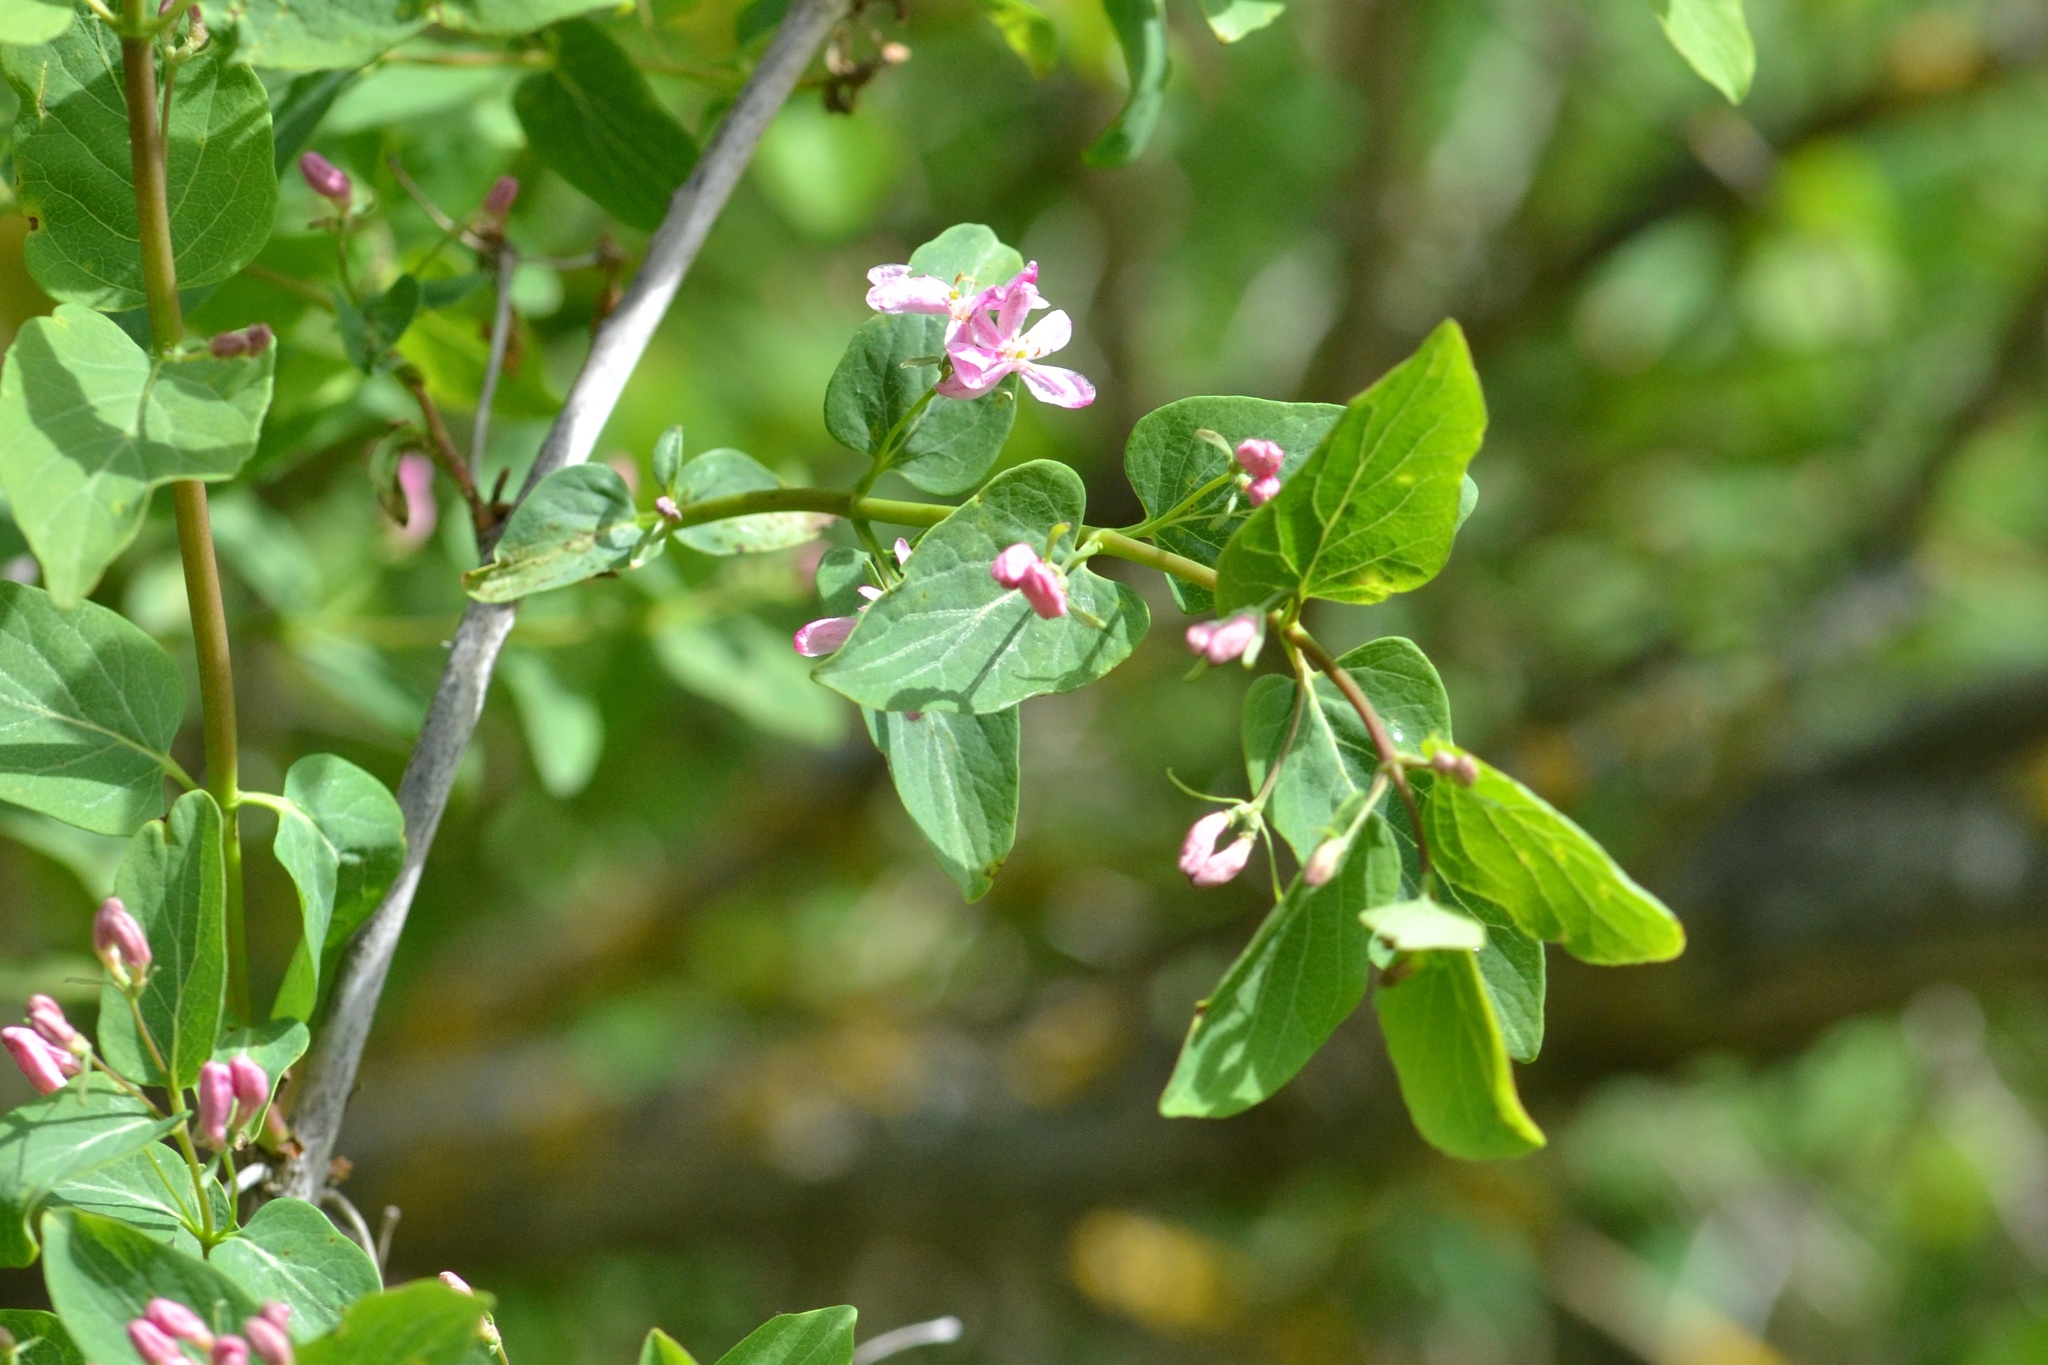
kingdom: Plantae
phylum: Tracheophyta
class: Magnoliopsida
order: Dipsacales
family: Caprifoliaceae
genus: Lonicera
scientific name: Lonicera tatarica
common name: Tatarian honeysuckle
